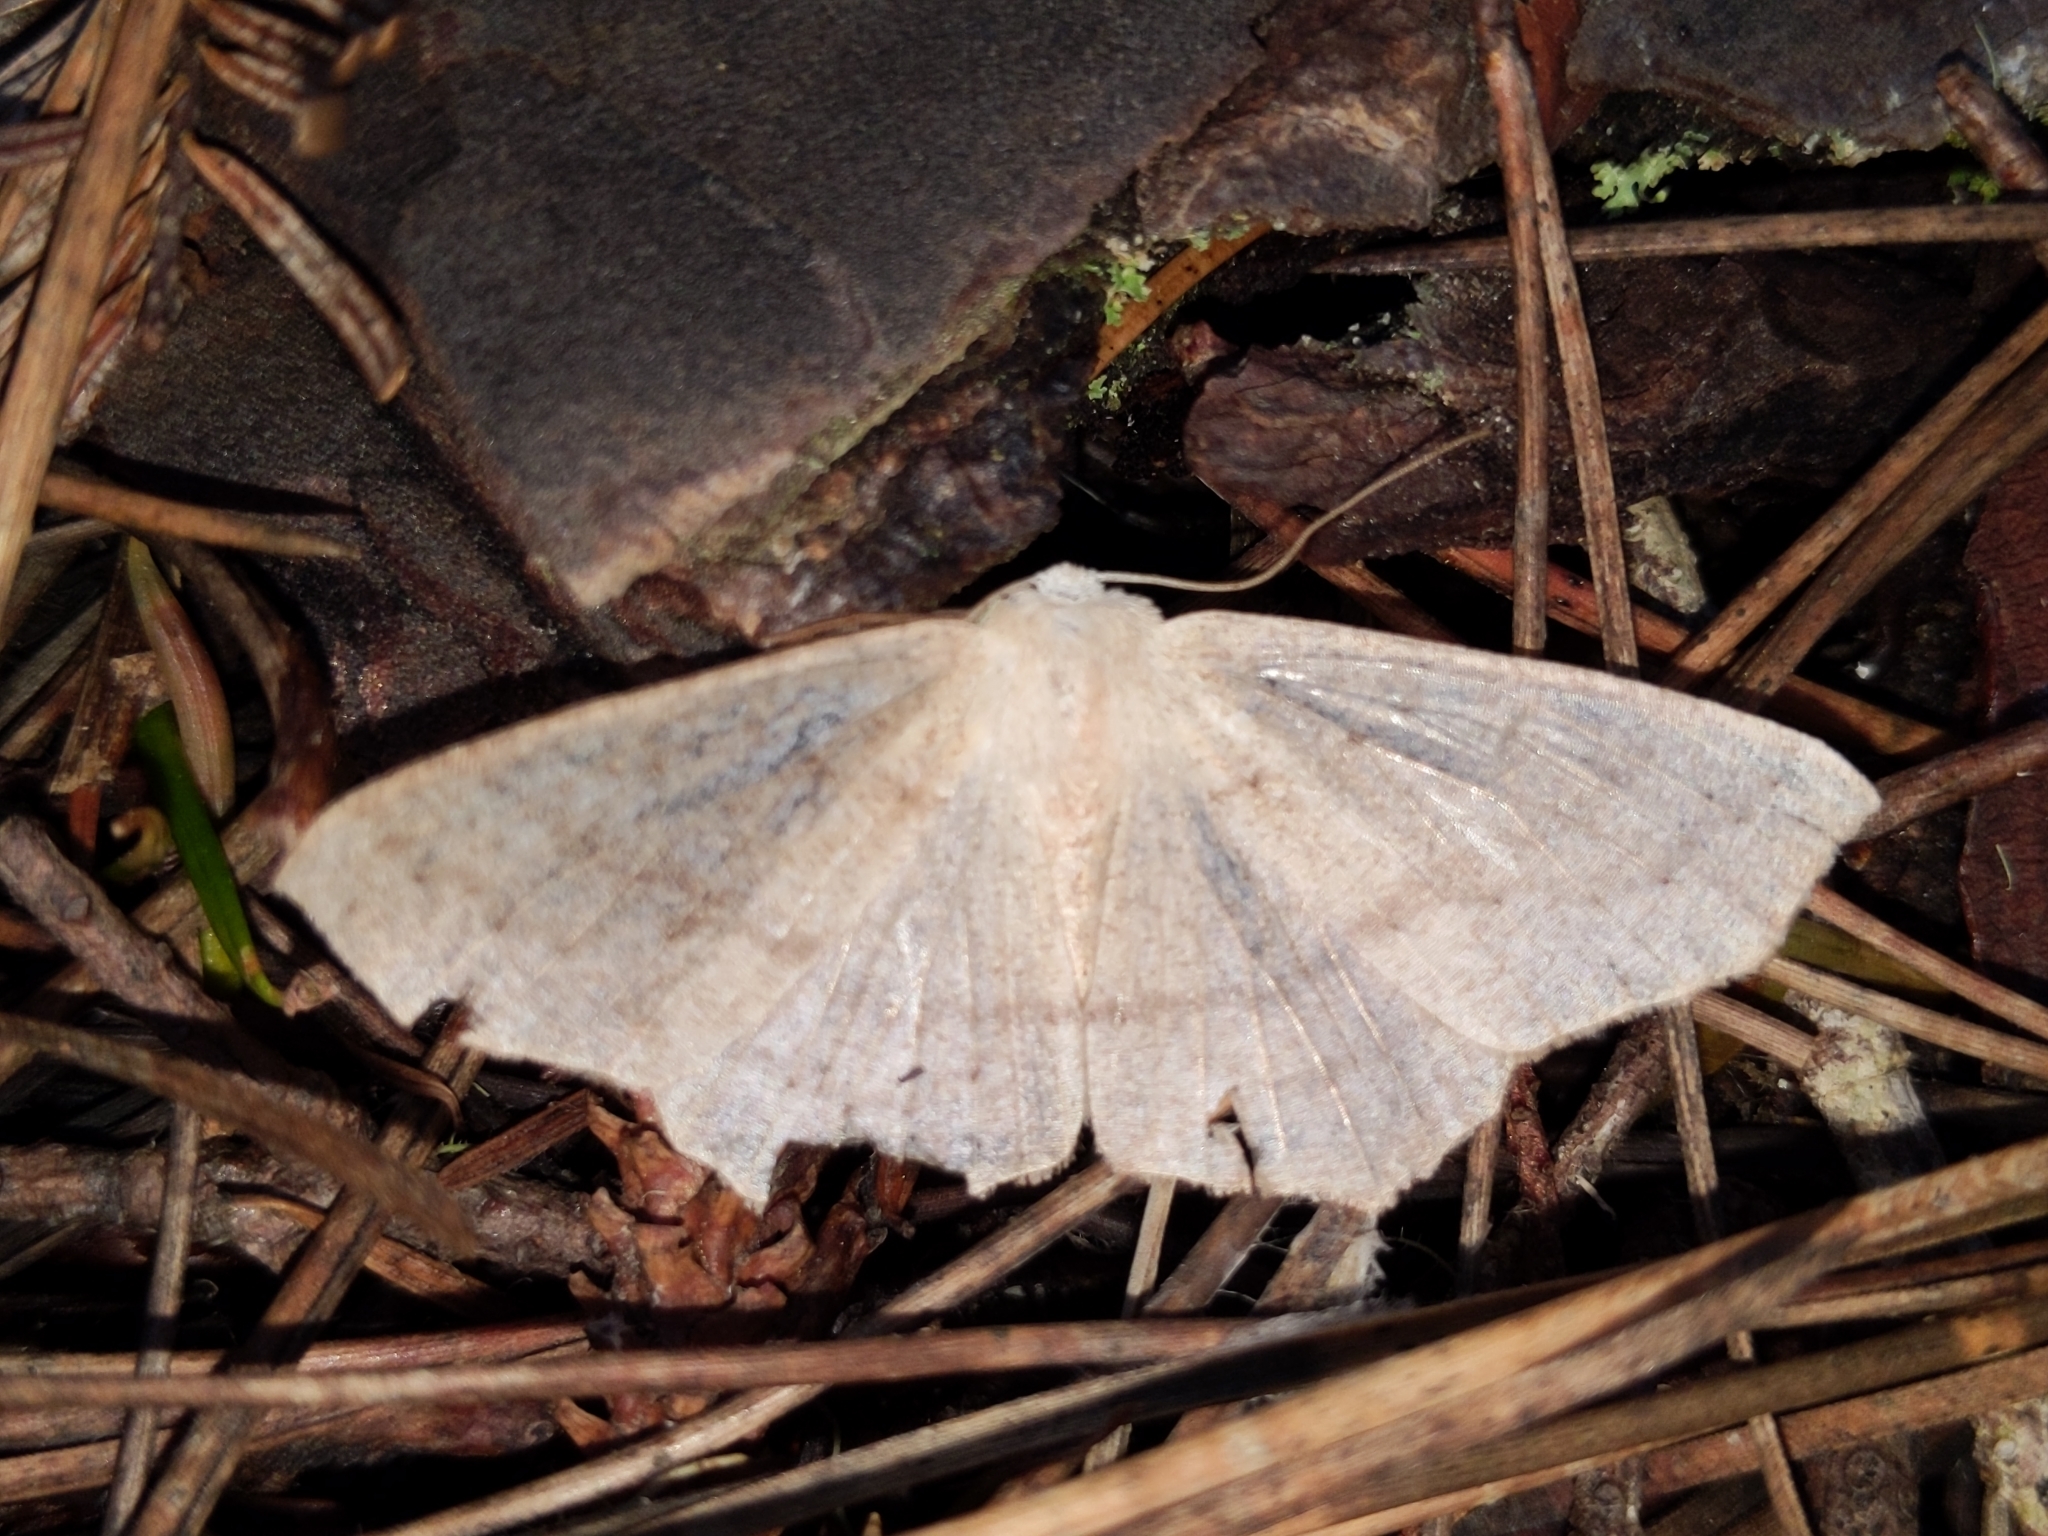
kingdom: Animalia
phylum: Arthropoda
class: Insecta
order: Lepidoptera
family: Geometridae
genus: Sabulodes
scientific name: Sabulodes aegrotata
